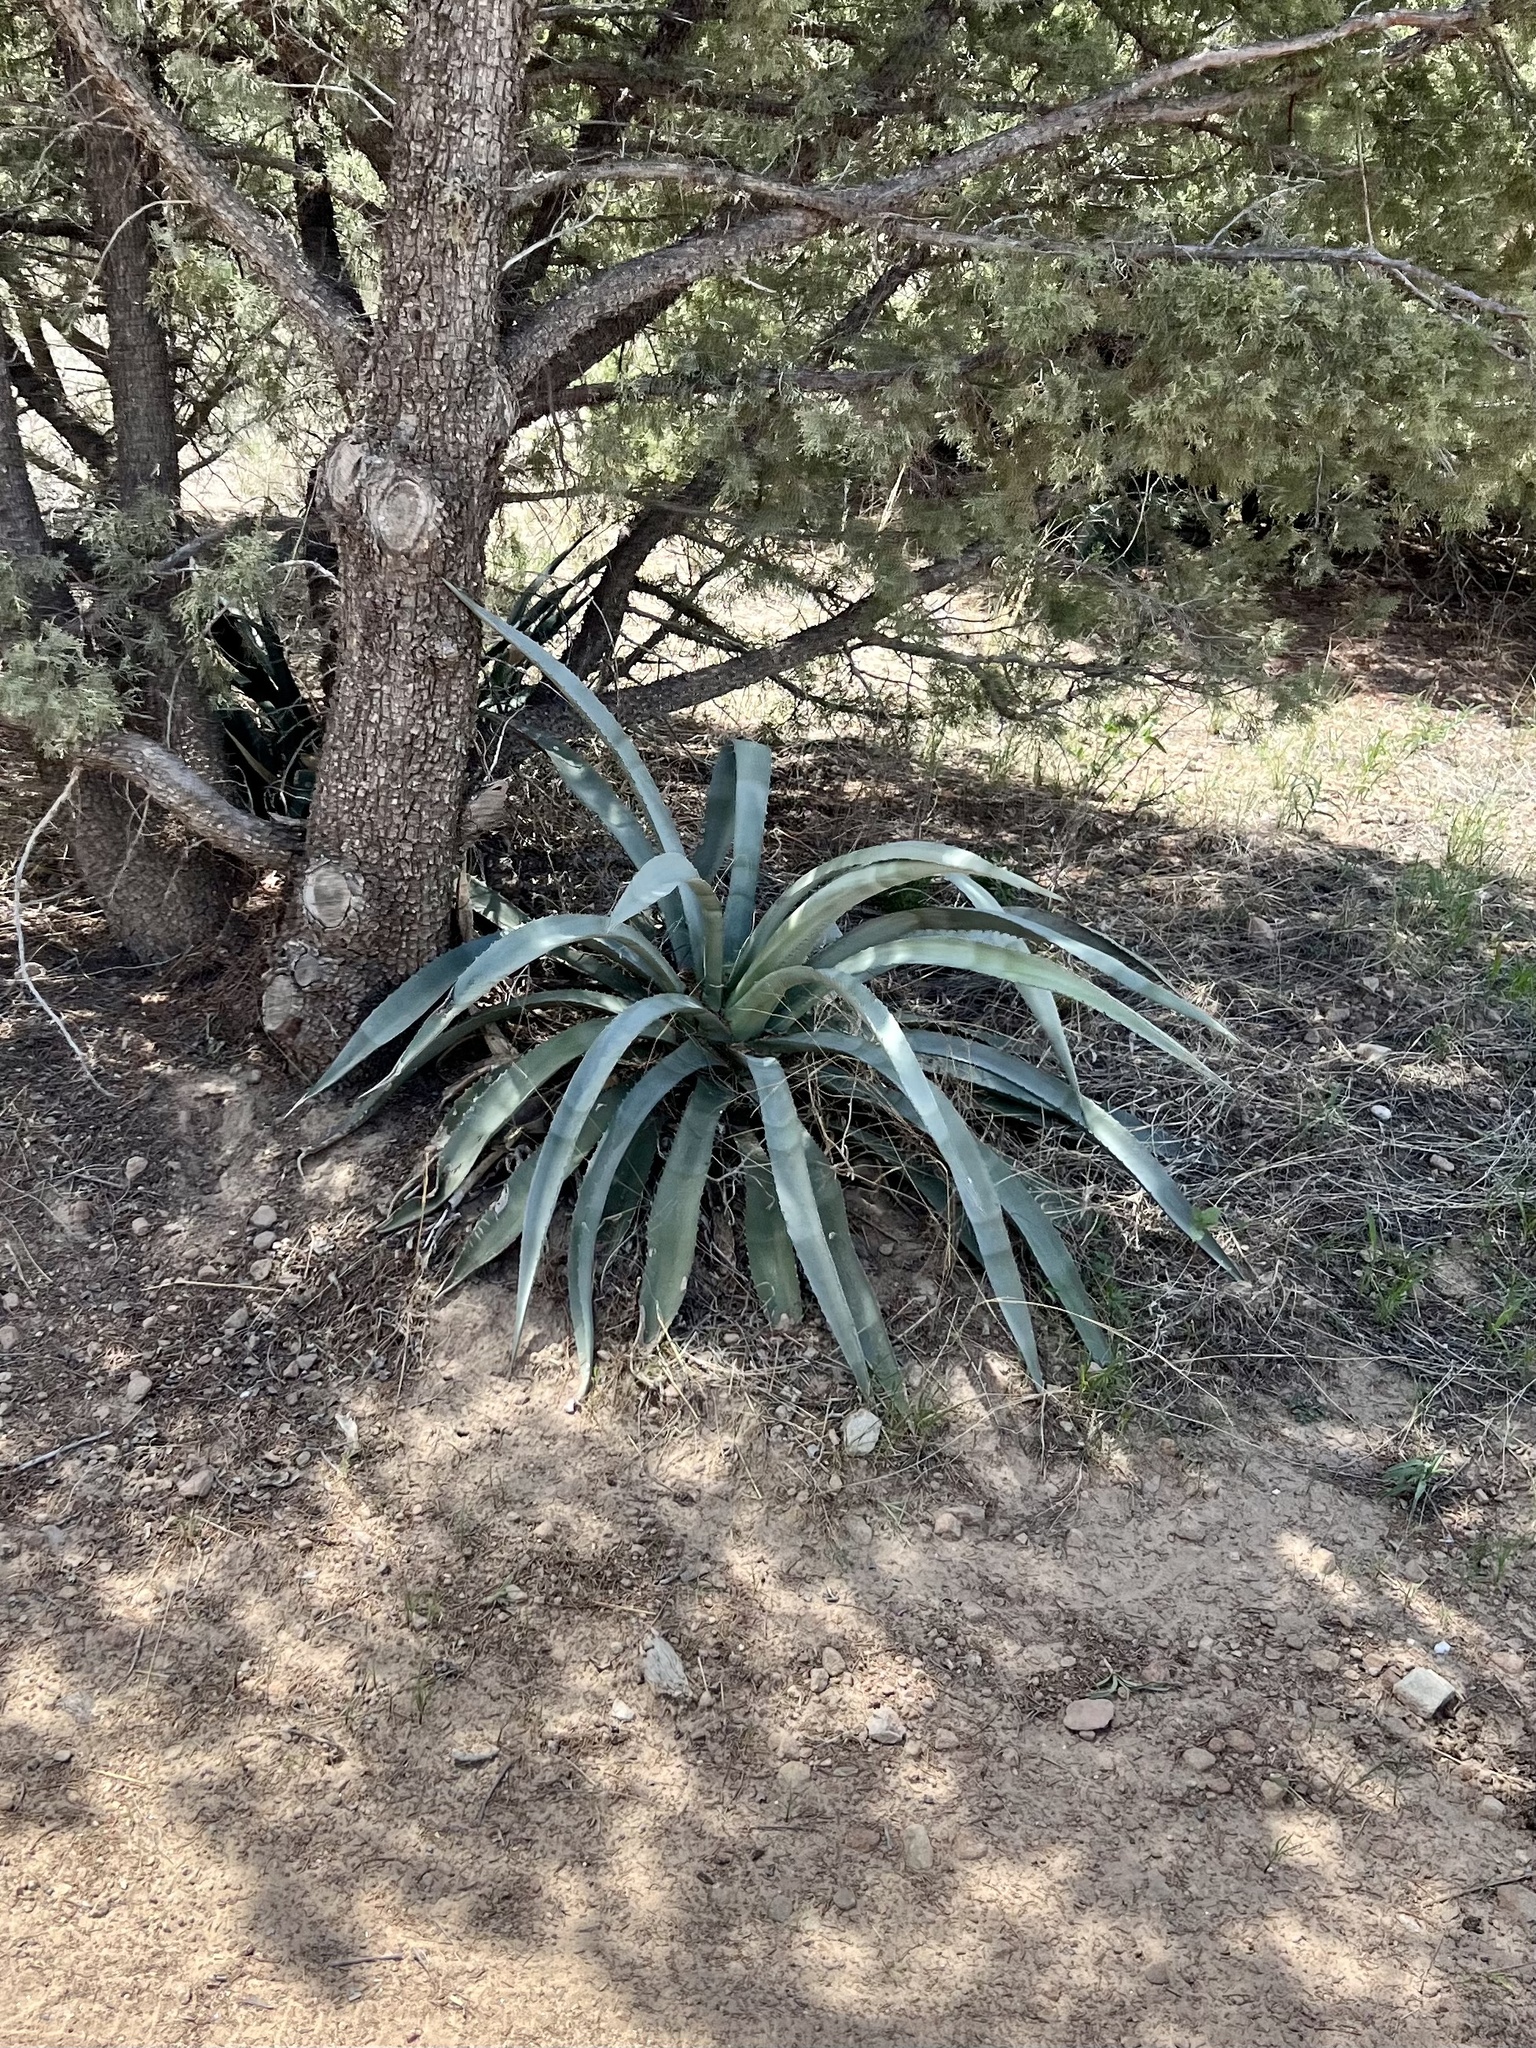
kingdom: Plantae
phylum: Tracheophyta
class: Liliopsida
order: Asparagales
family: Asparagaceae
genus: Agave
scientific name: Agave palmeri
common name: Palmer agave
